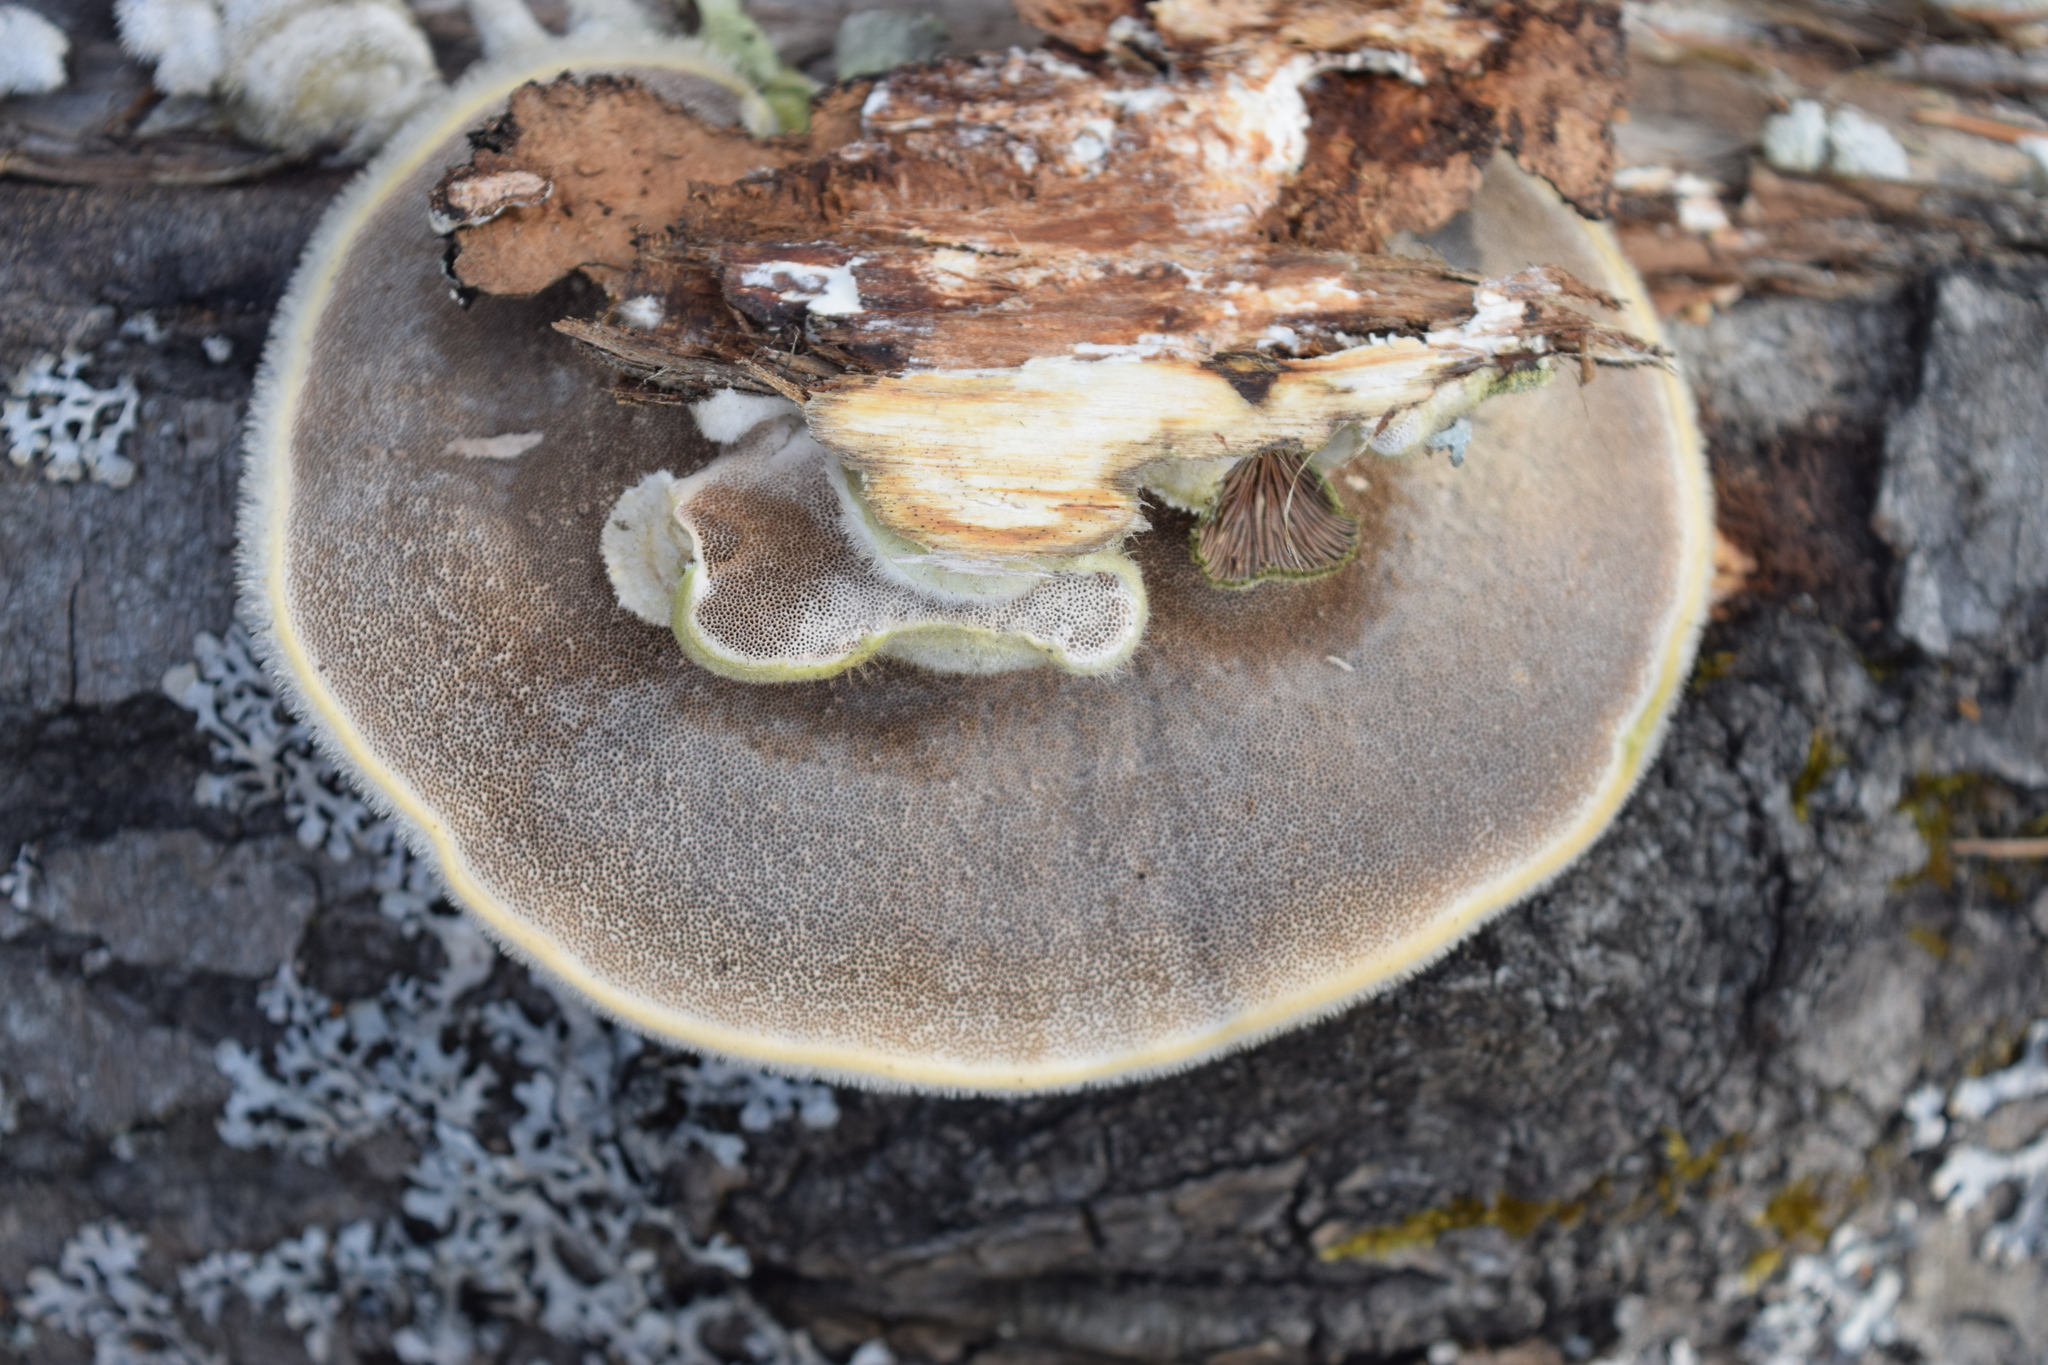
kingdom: Fungi
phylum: Basidiomycota
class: Agaricomycetes
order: Polyporales
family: Polyporaceae
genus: Trametes
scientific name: Trametes hirsuta
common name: Hairy bracket
